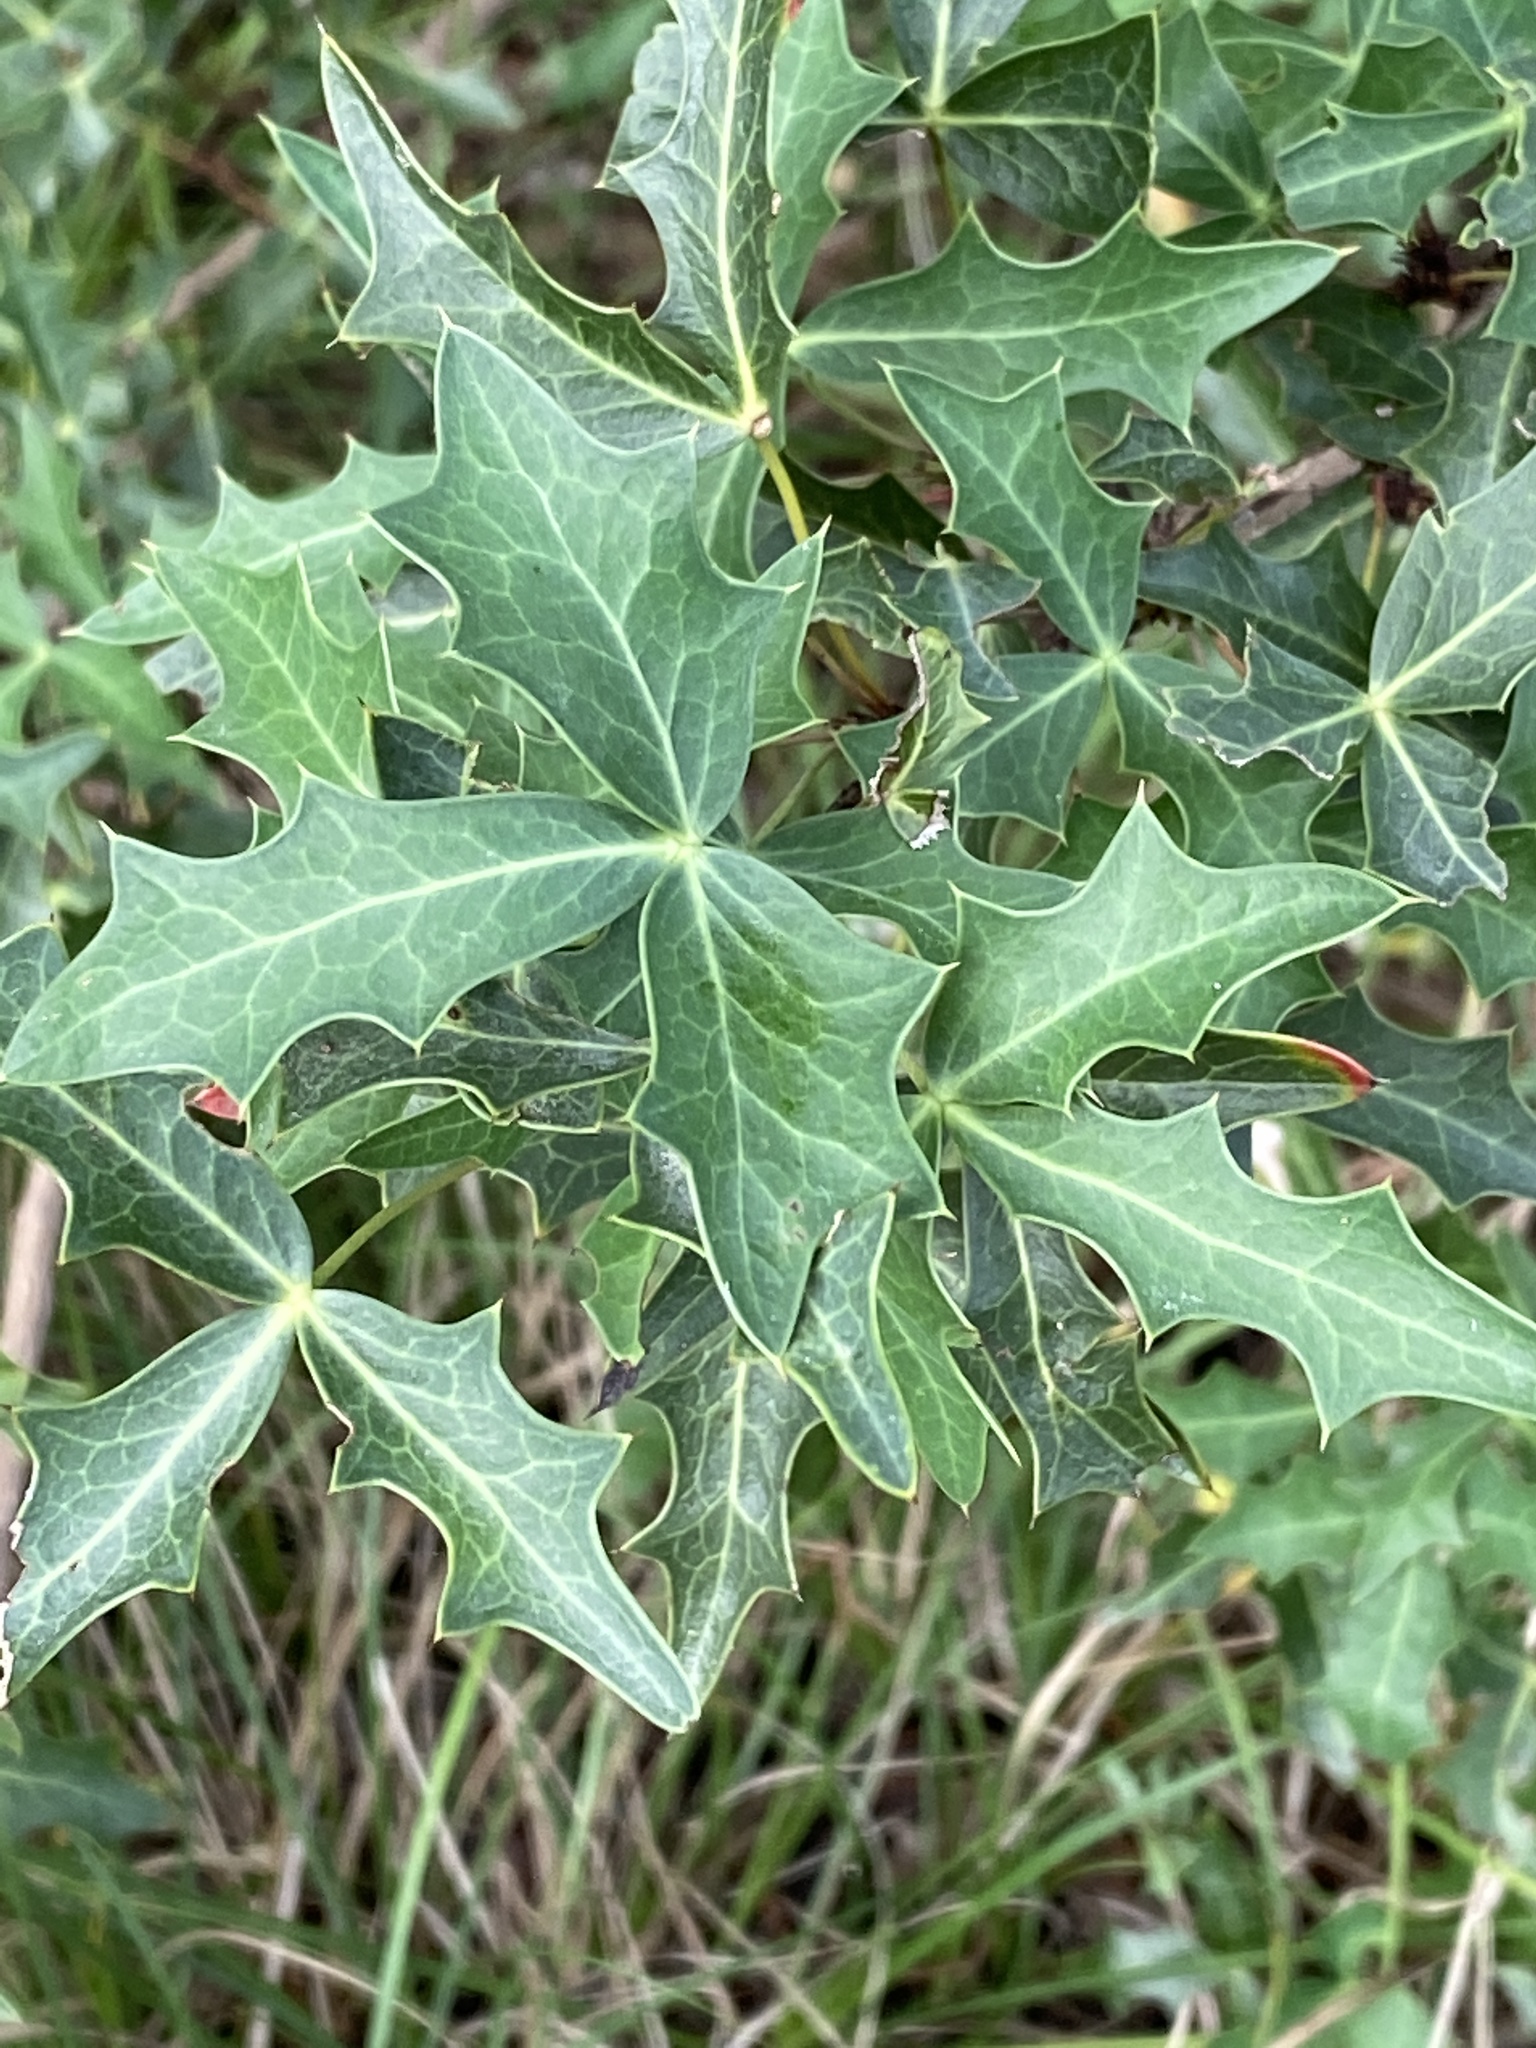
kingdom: Plantae
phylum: Tracheophyta
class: Magnoliopsida
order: Ranunculales
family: Berberidaceae
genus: Alloberberis
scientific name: Alloberberis trifoliolata
